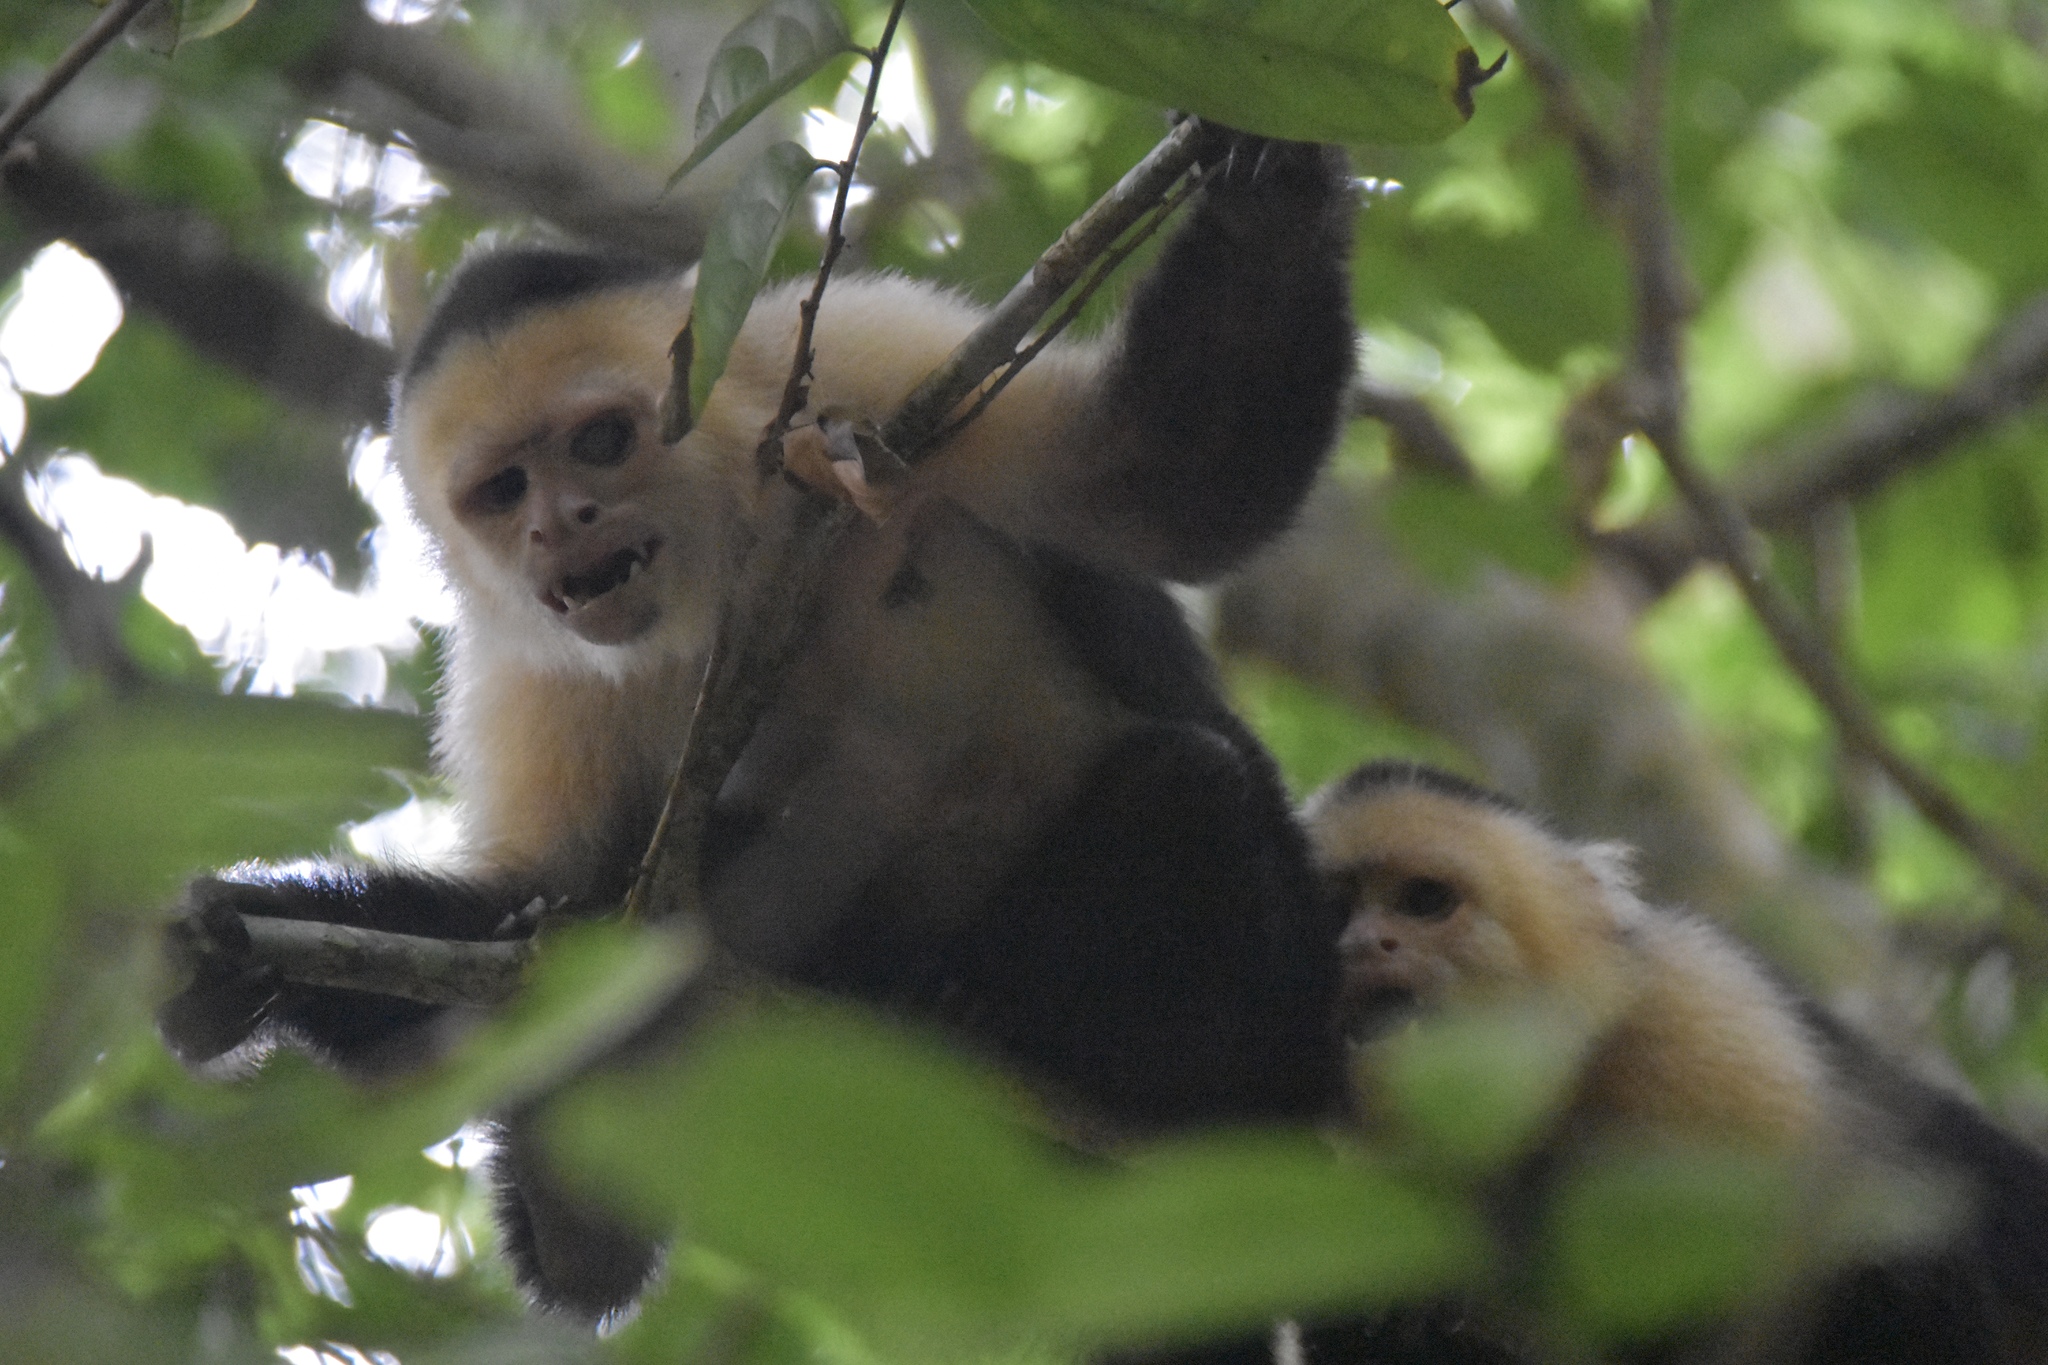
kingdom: Animalia
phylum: Chordata
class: Mammalia
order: Primates
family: Cebidae
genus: Cebus
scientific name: Cebus imitator
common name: Panamanian white-faced capuchin
